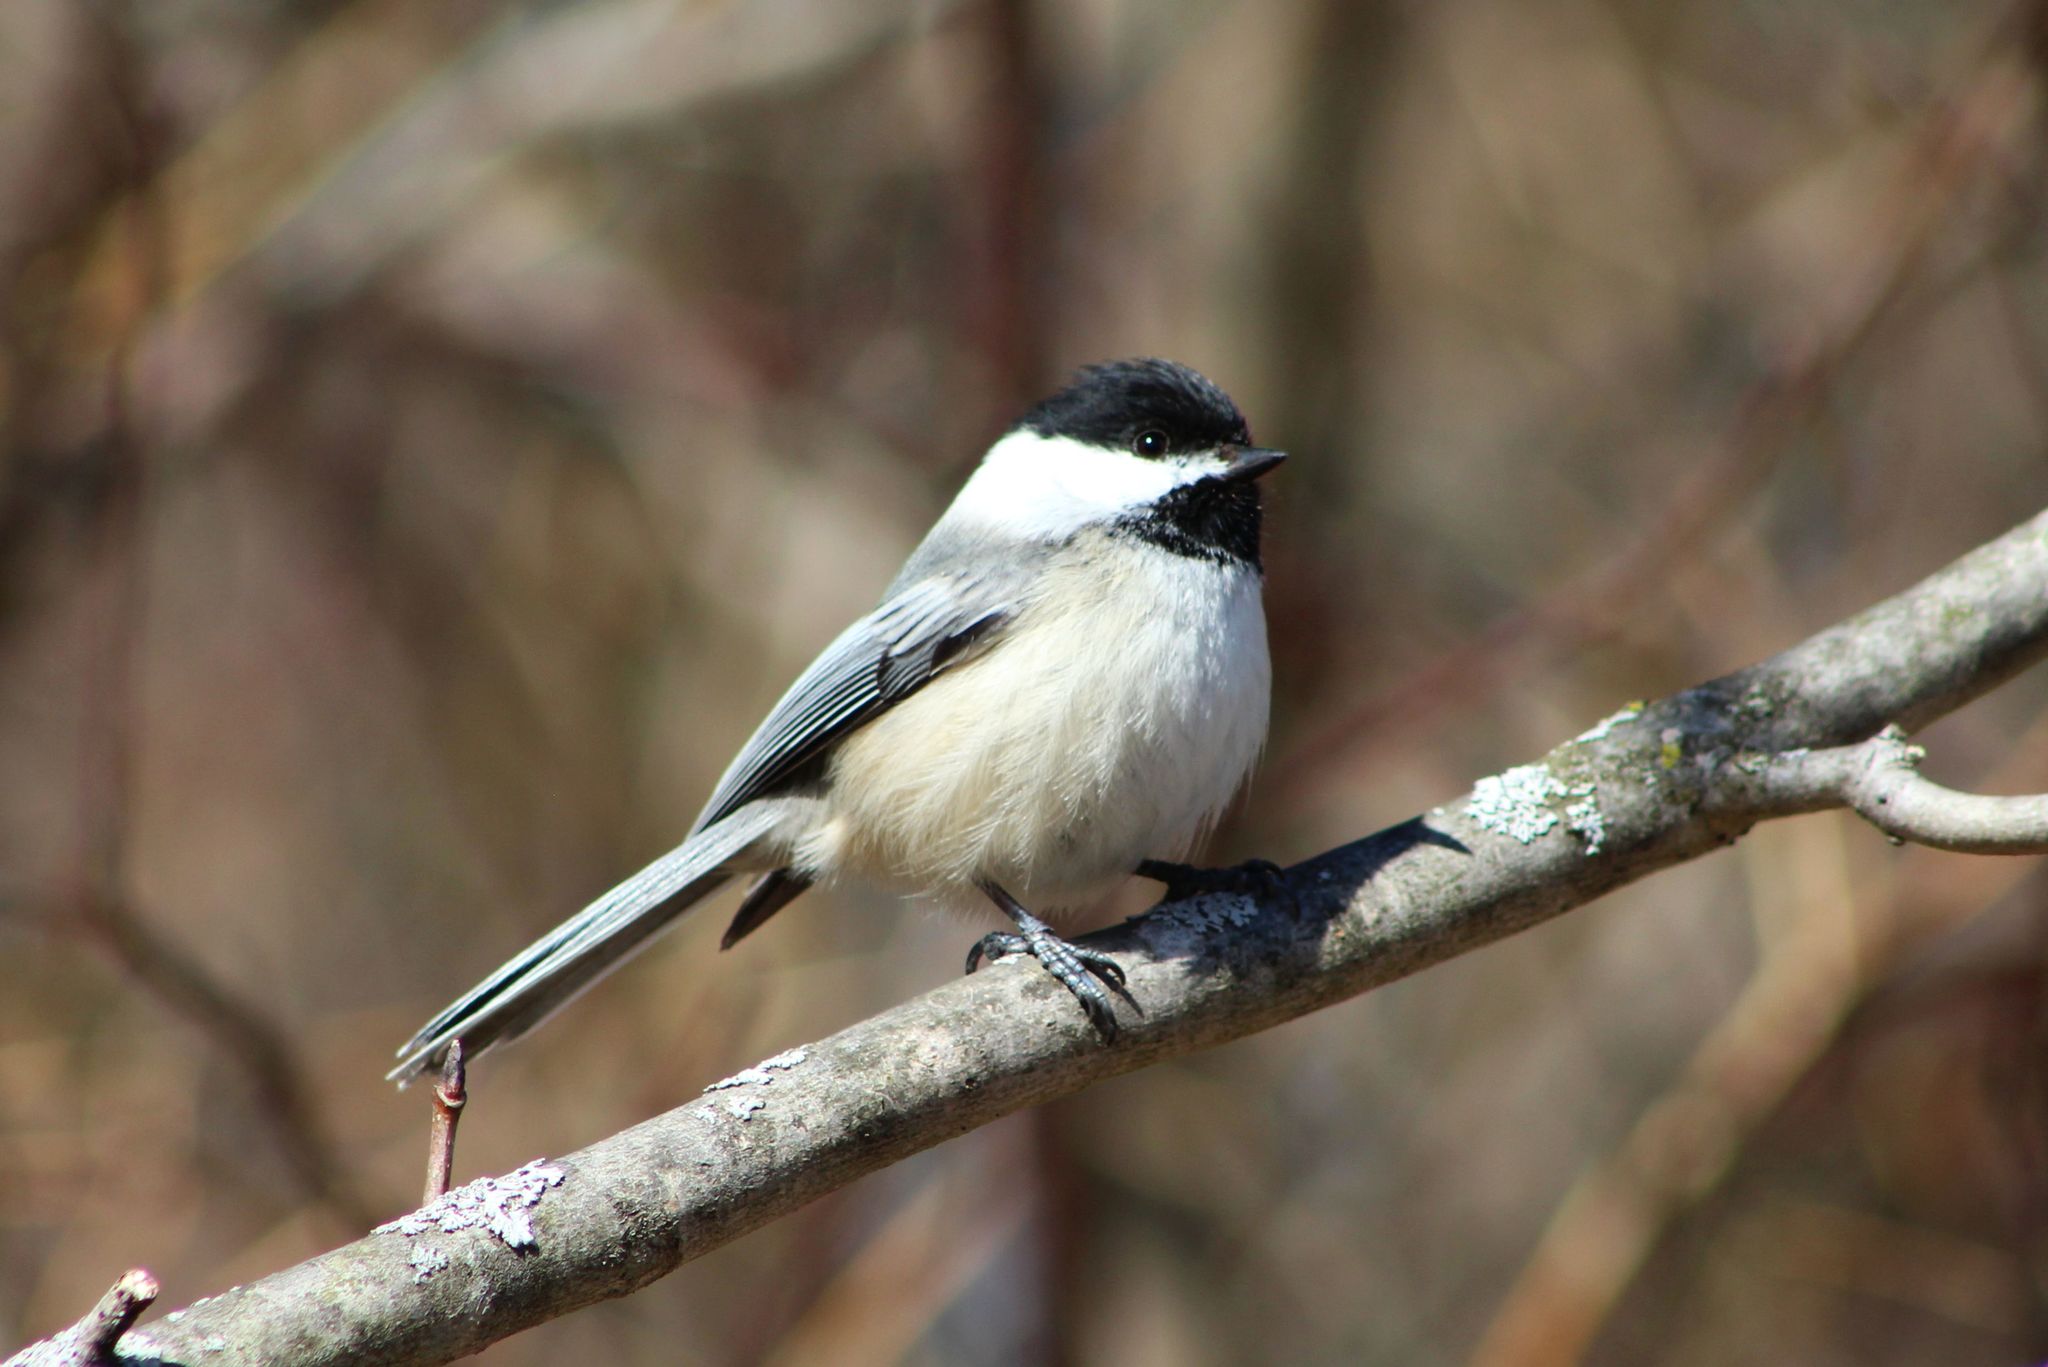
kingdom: Animalia
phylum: Chordata
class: Aves
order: Passeriformes
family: Paridae
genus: Poecile
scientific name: Poecile atricapillus
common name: Black-capped chickadee
